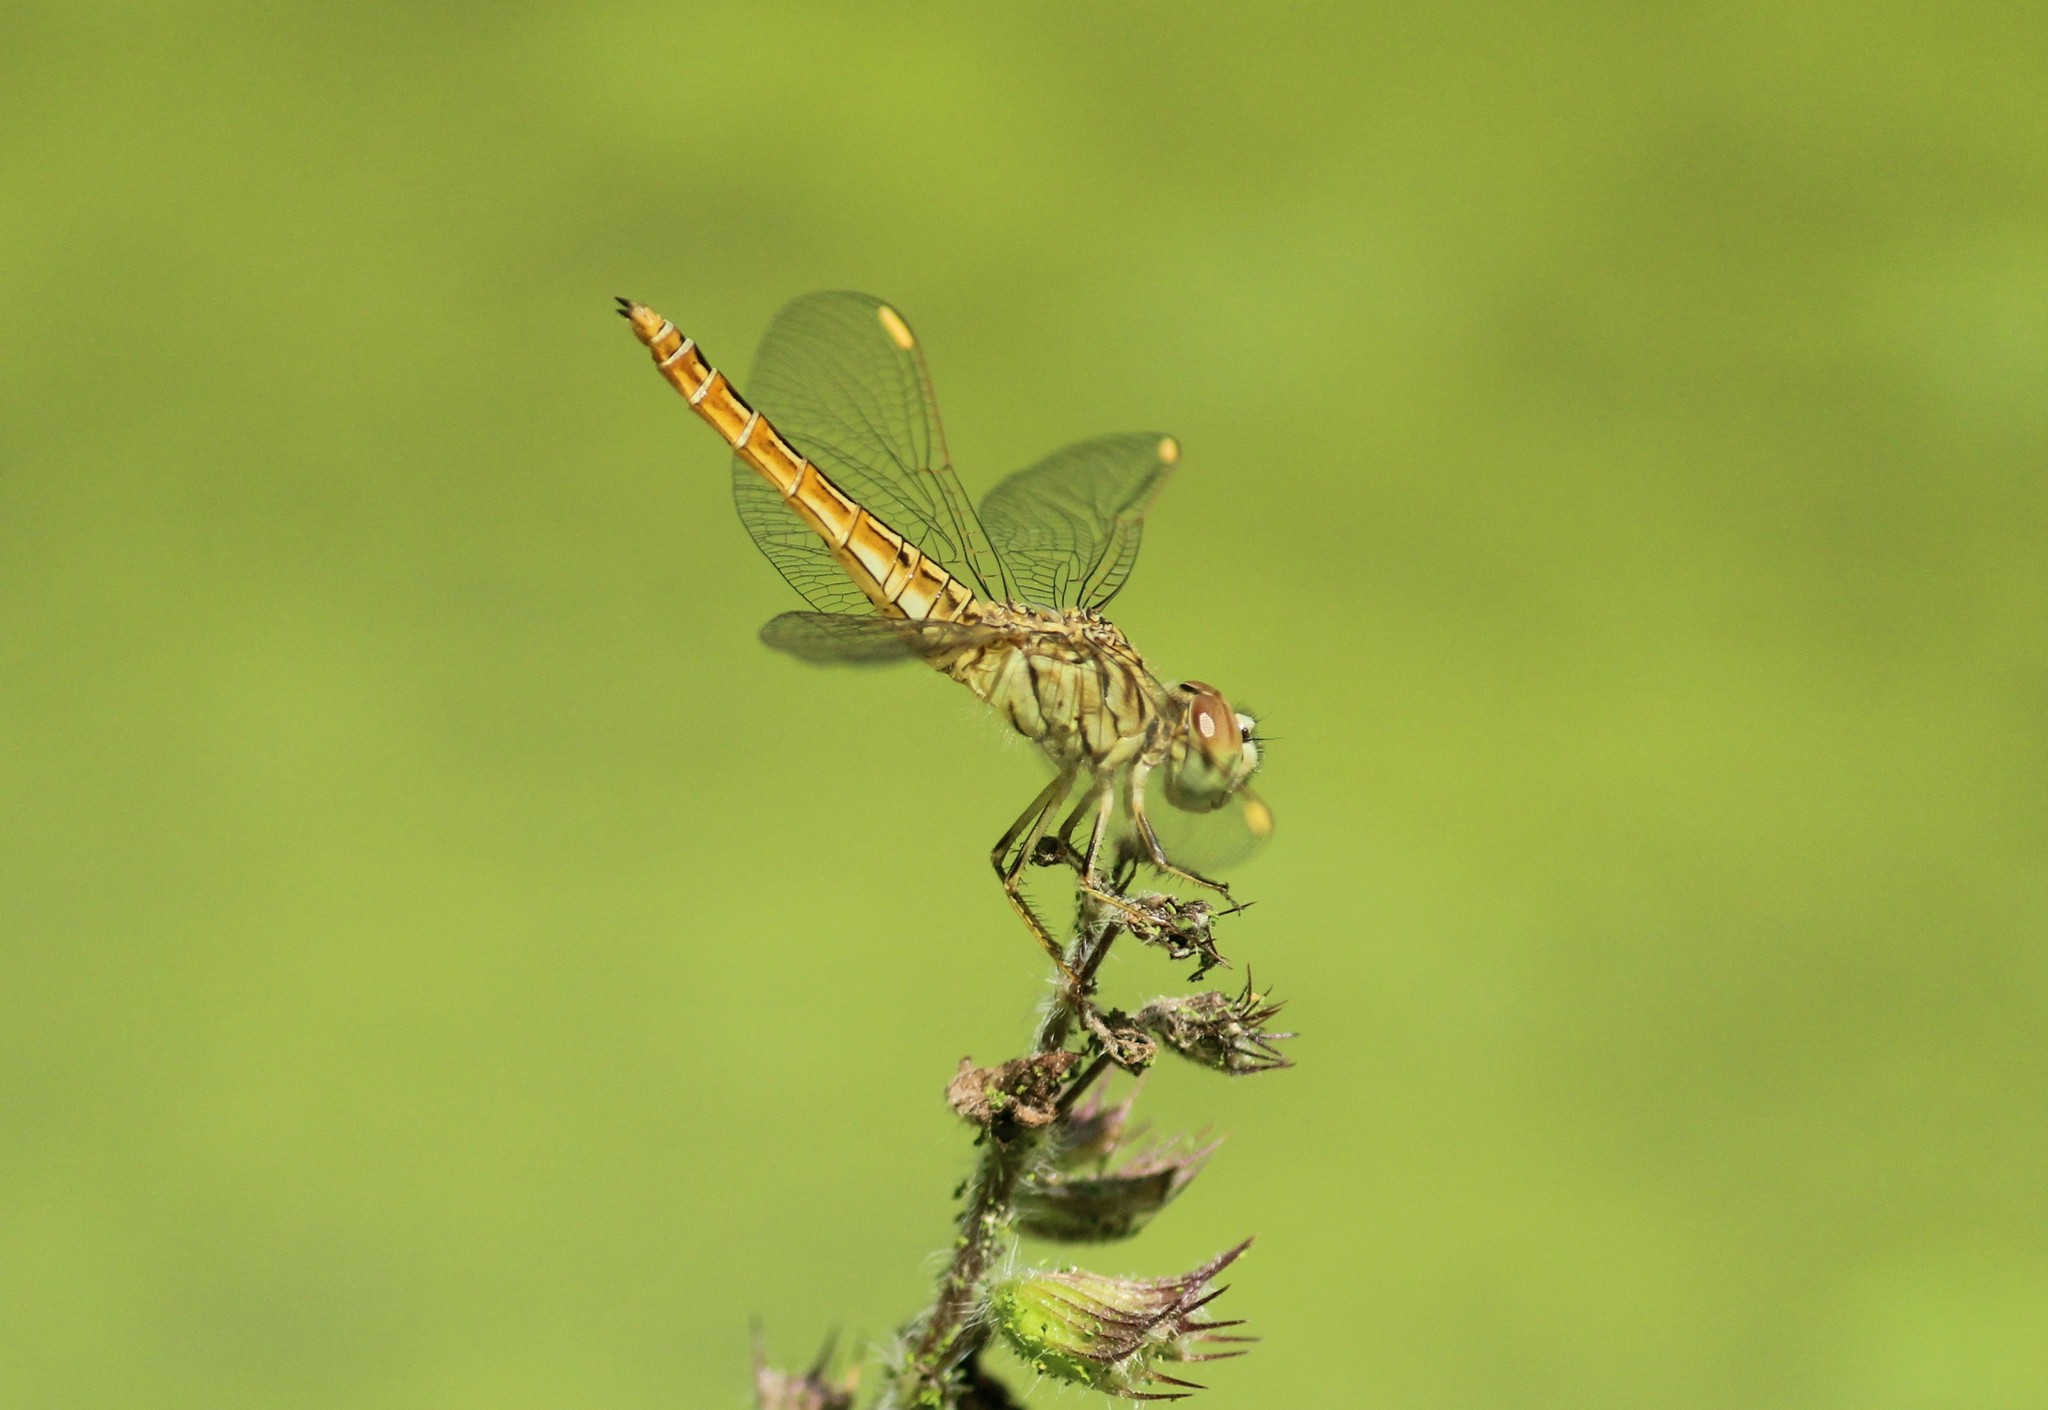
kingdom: Animalia
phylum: Arthropoda
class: Insecta
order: Odonata
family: Libellulidae
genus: Brachythemis
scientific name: Brachythemis contaminata
